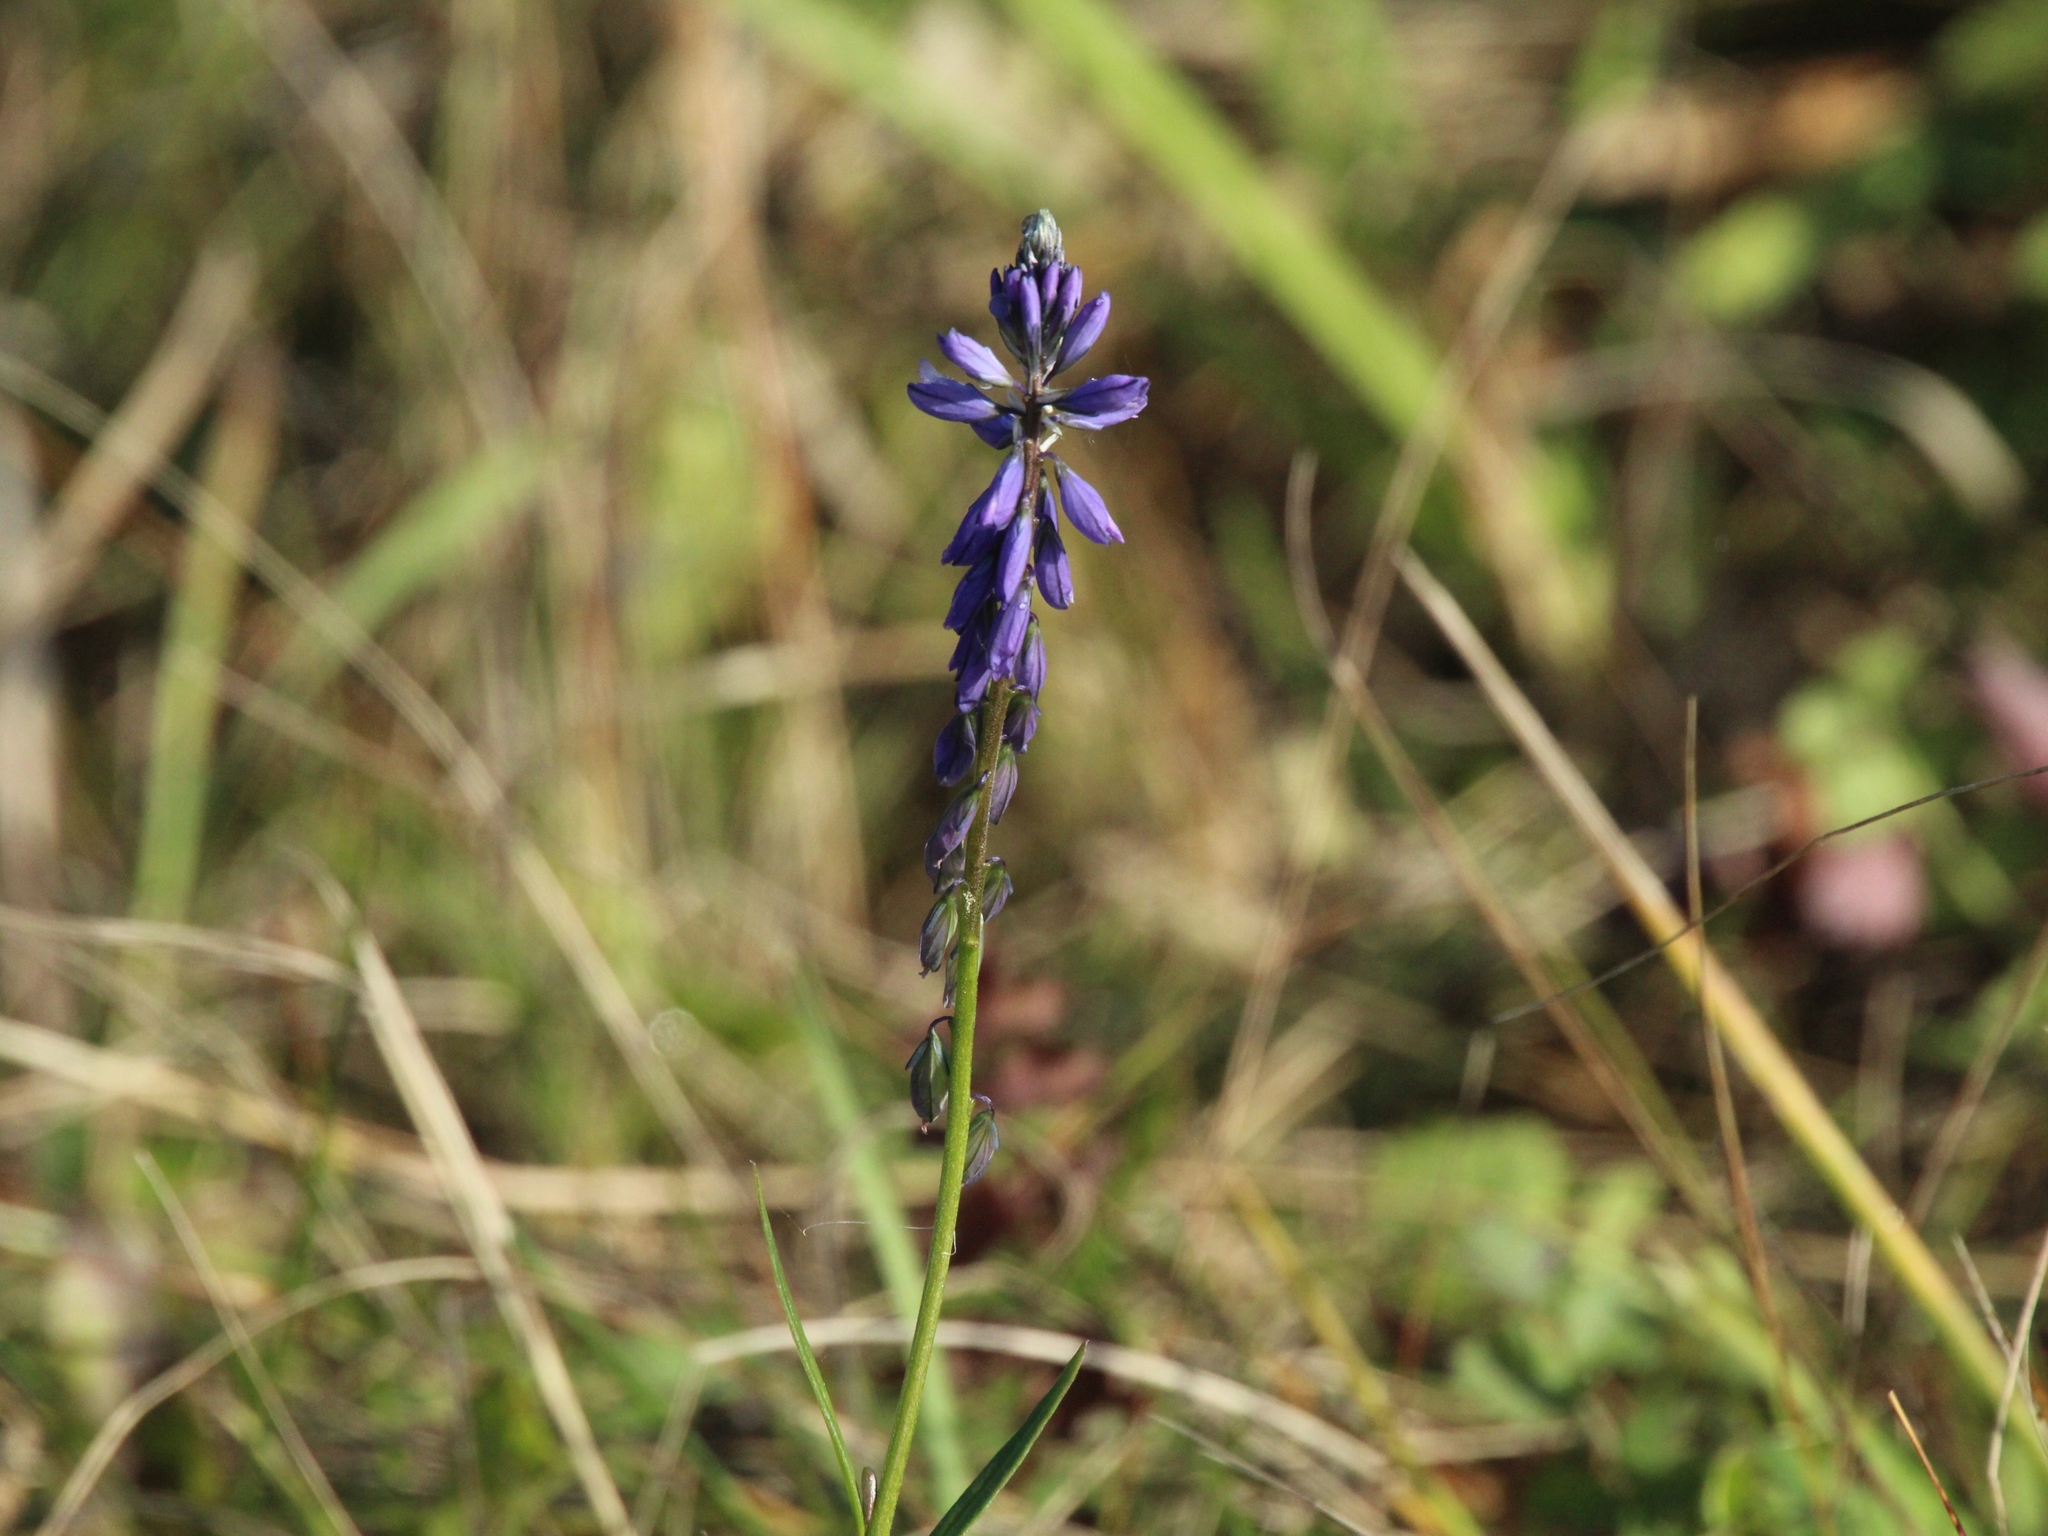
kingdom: Plantae
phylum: Tracheophyta
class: Magnoliopsida
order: Fabales
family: Polygalaceae
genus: Polygala
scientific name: Polygala comosa
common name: Tufted milkwort
